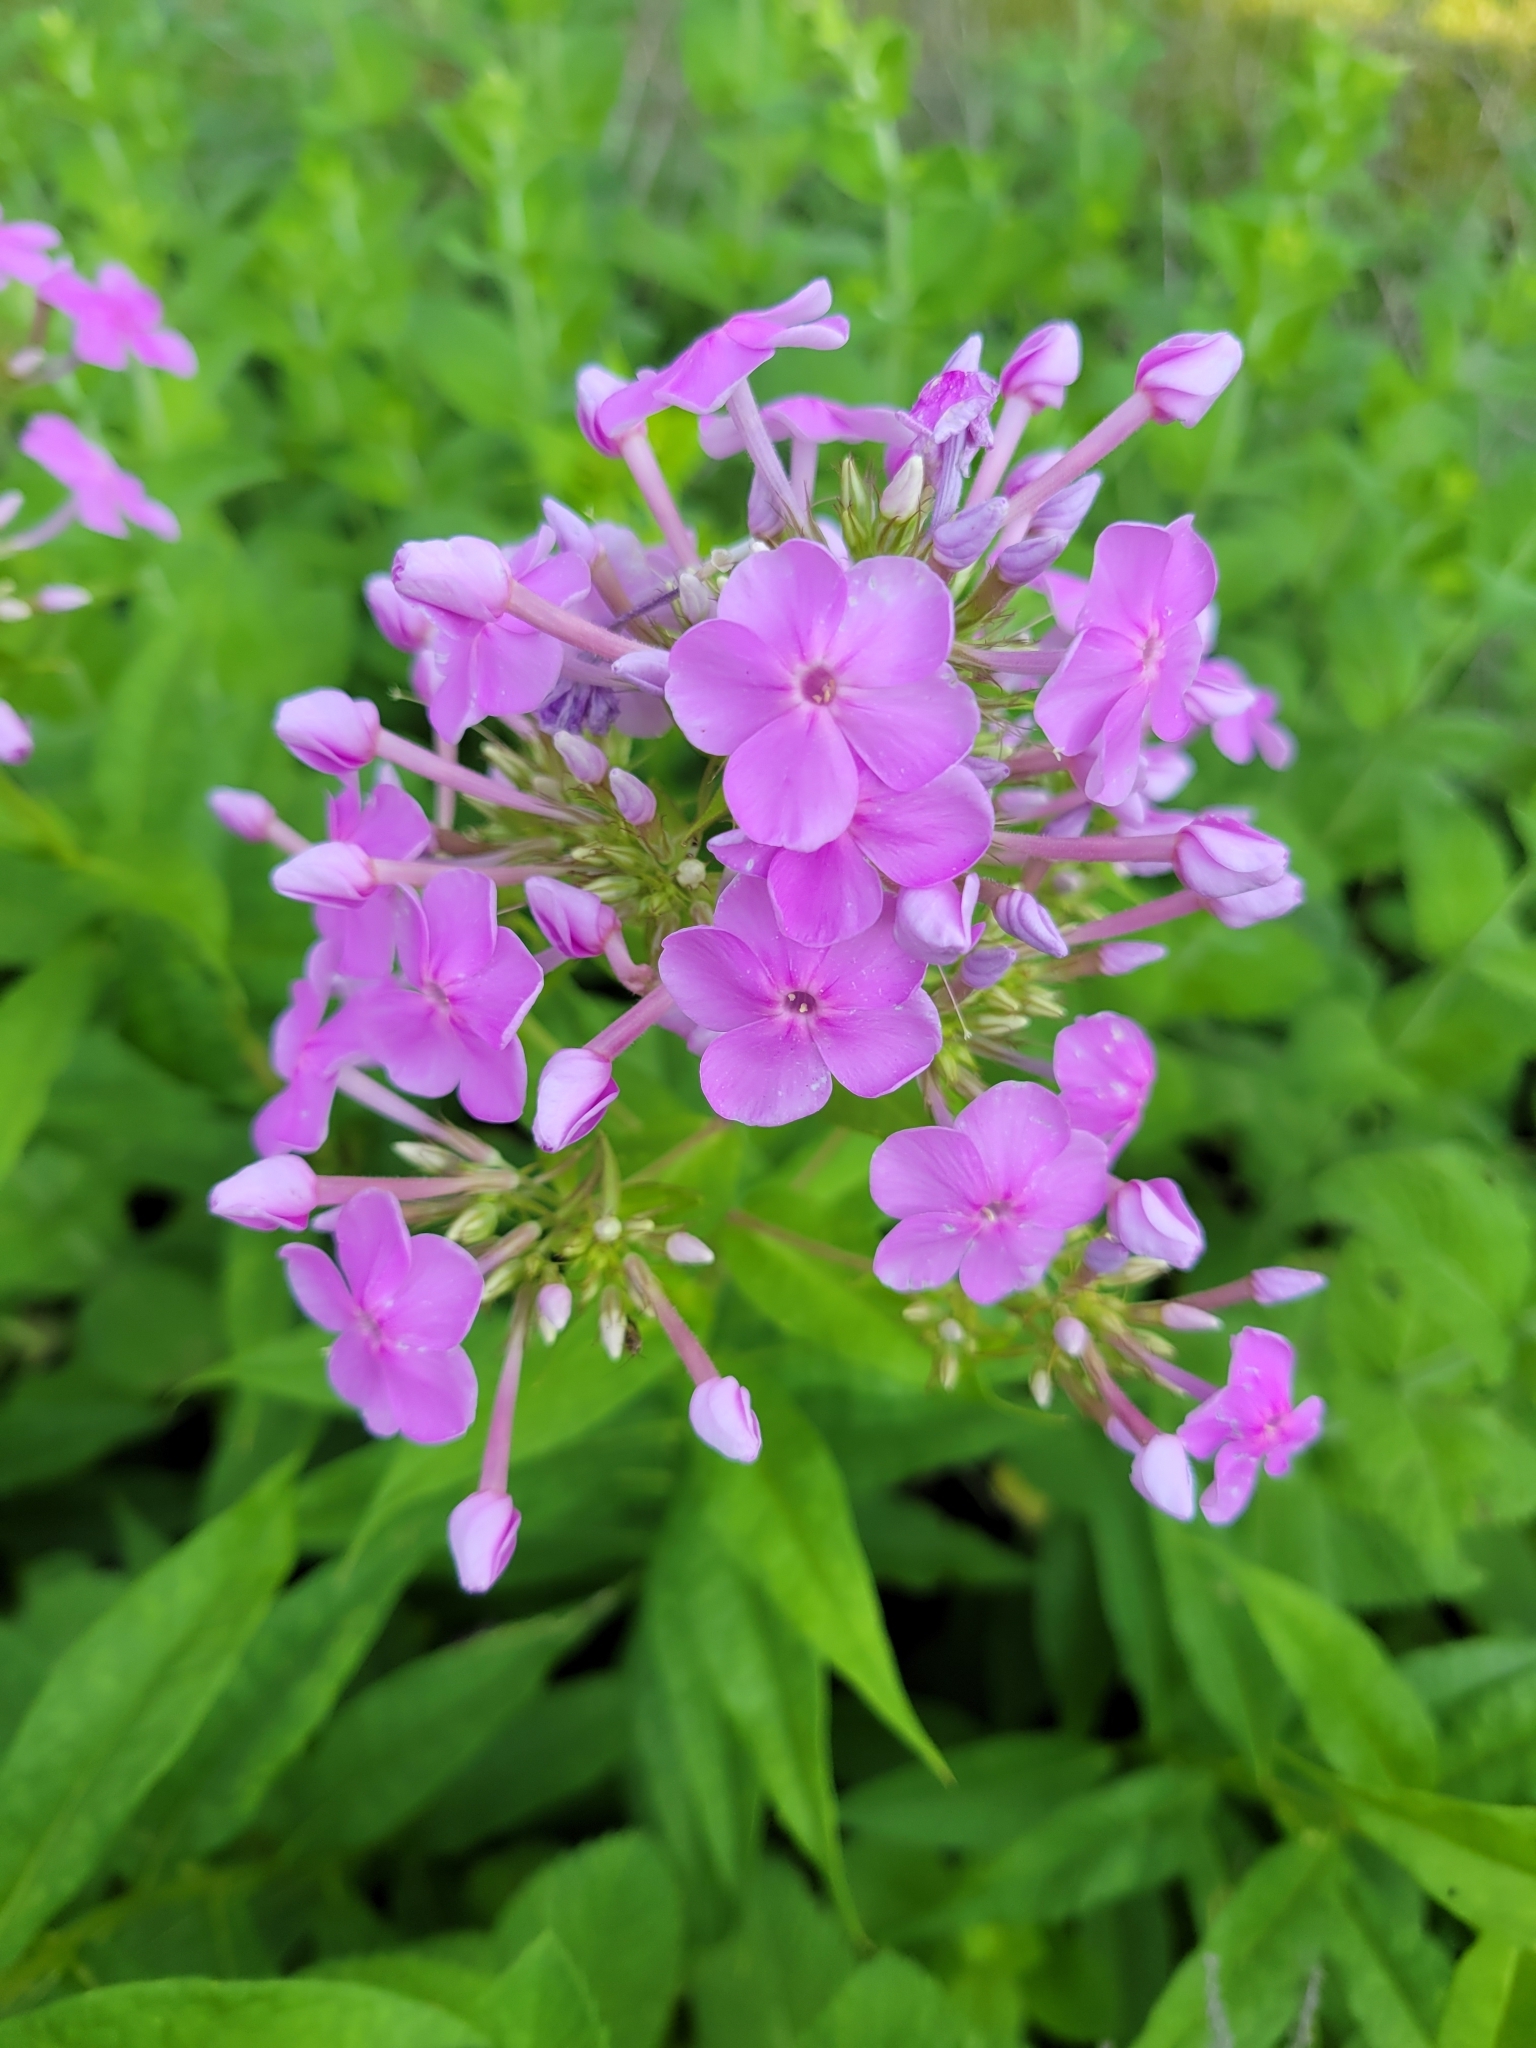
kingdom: Plantae
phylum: Tracheophyta
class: Magnoliopsida
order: Ericales
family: Polemoniaceae
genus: Phlox
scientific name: Phlox paniculata
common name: Fall phlox
